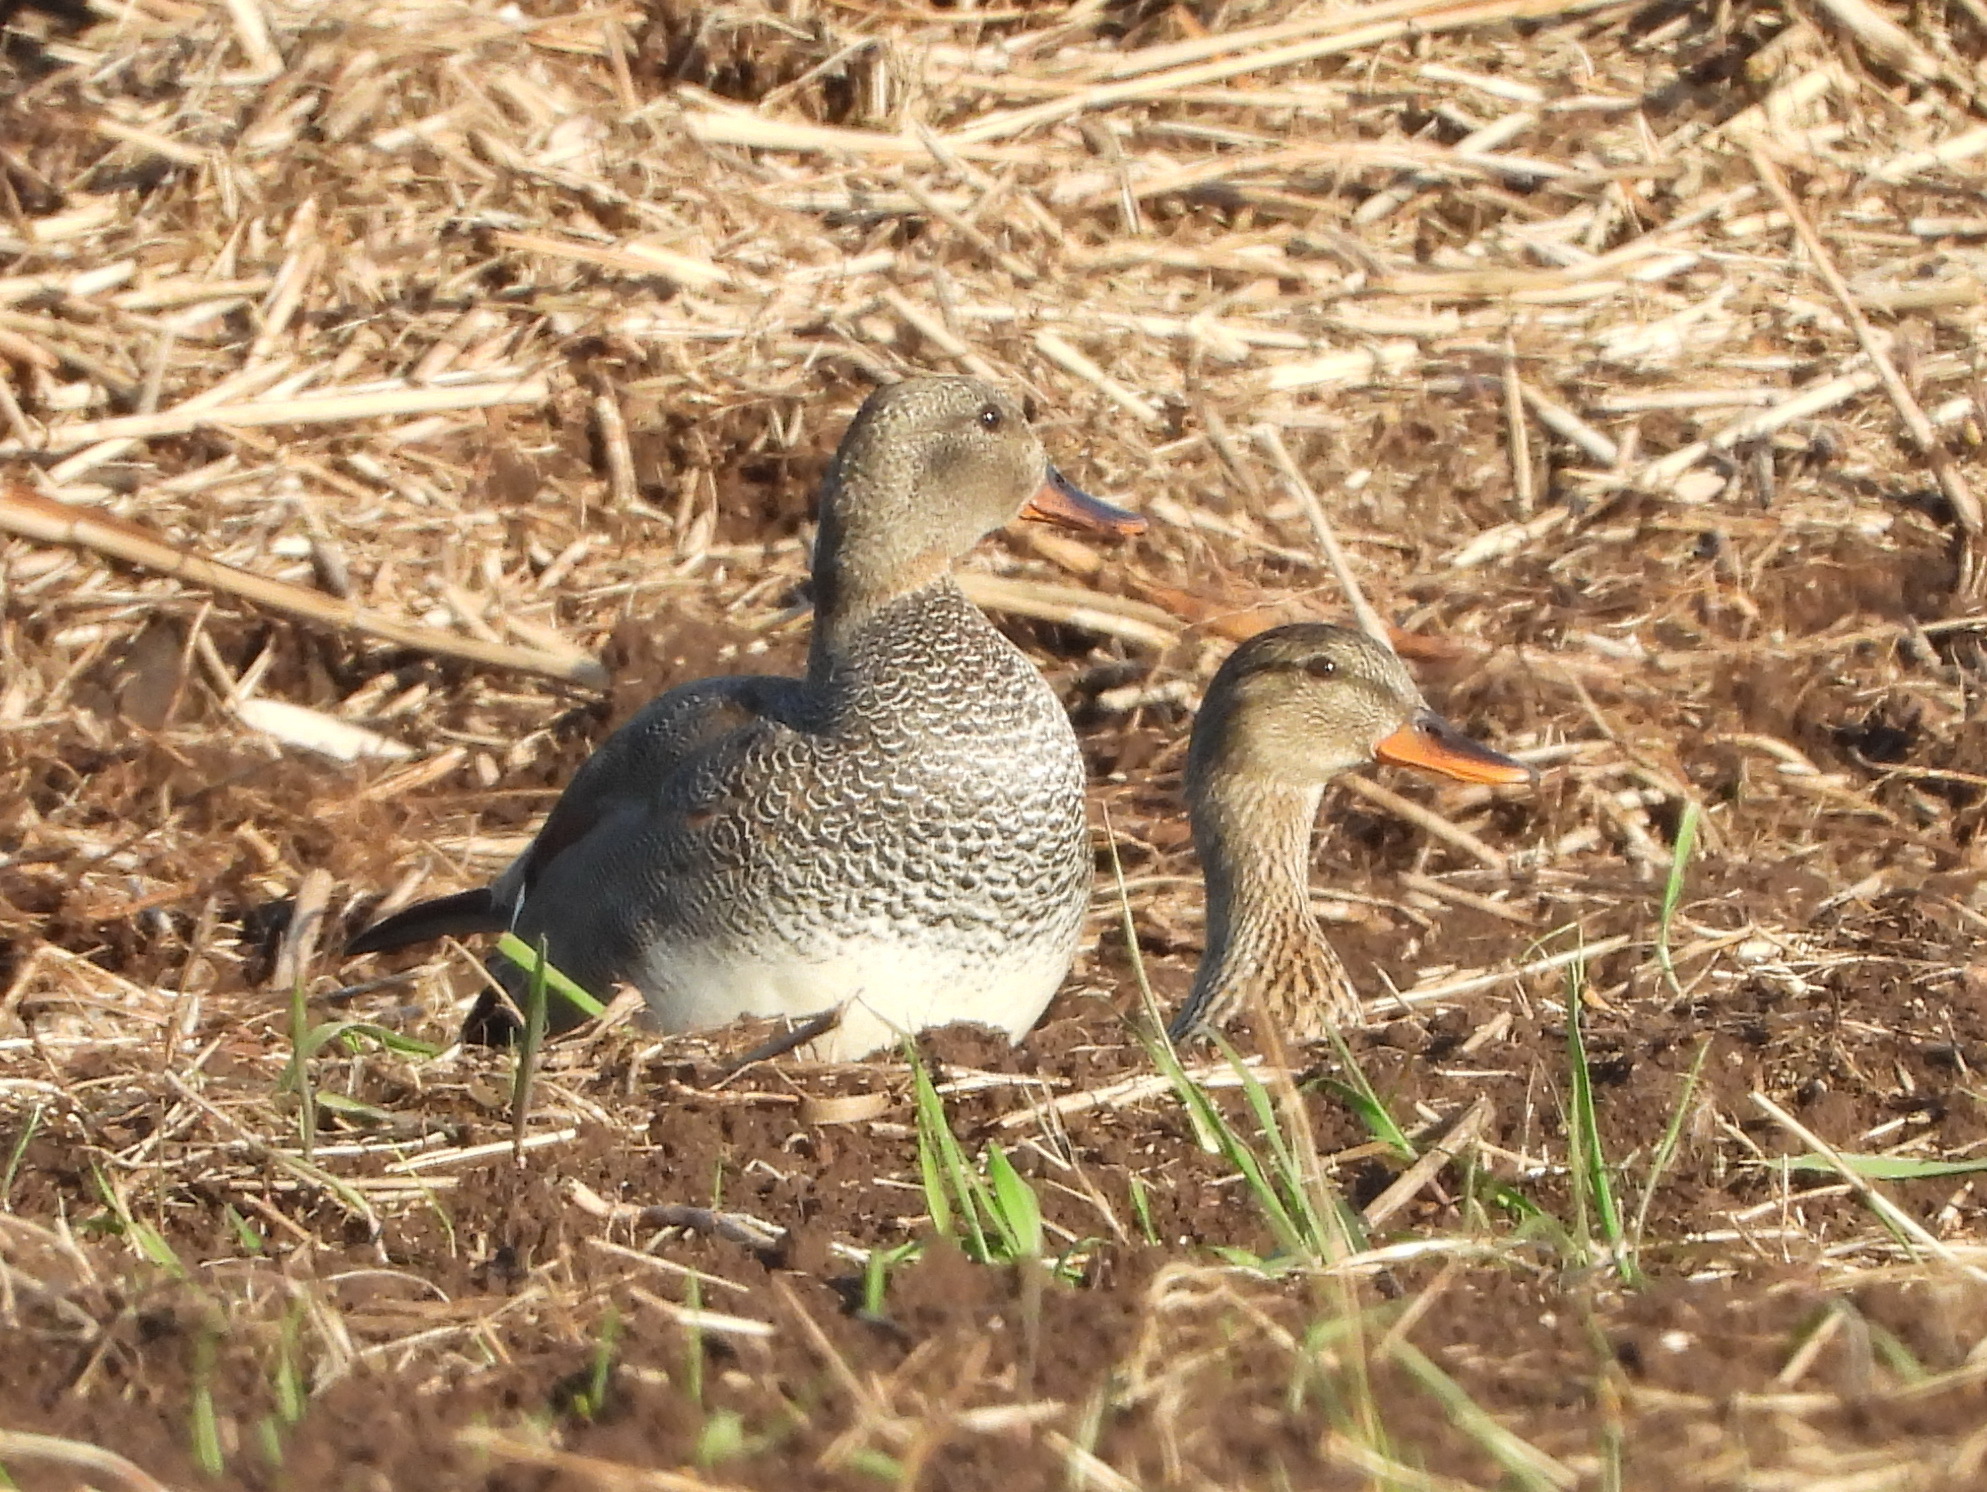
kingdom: Animalia
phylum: Chordata
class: Aves
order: Anseriformes
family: Anatidae
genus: Mareca
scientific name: Mareca strepera
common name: Gadwall
